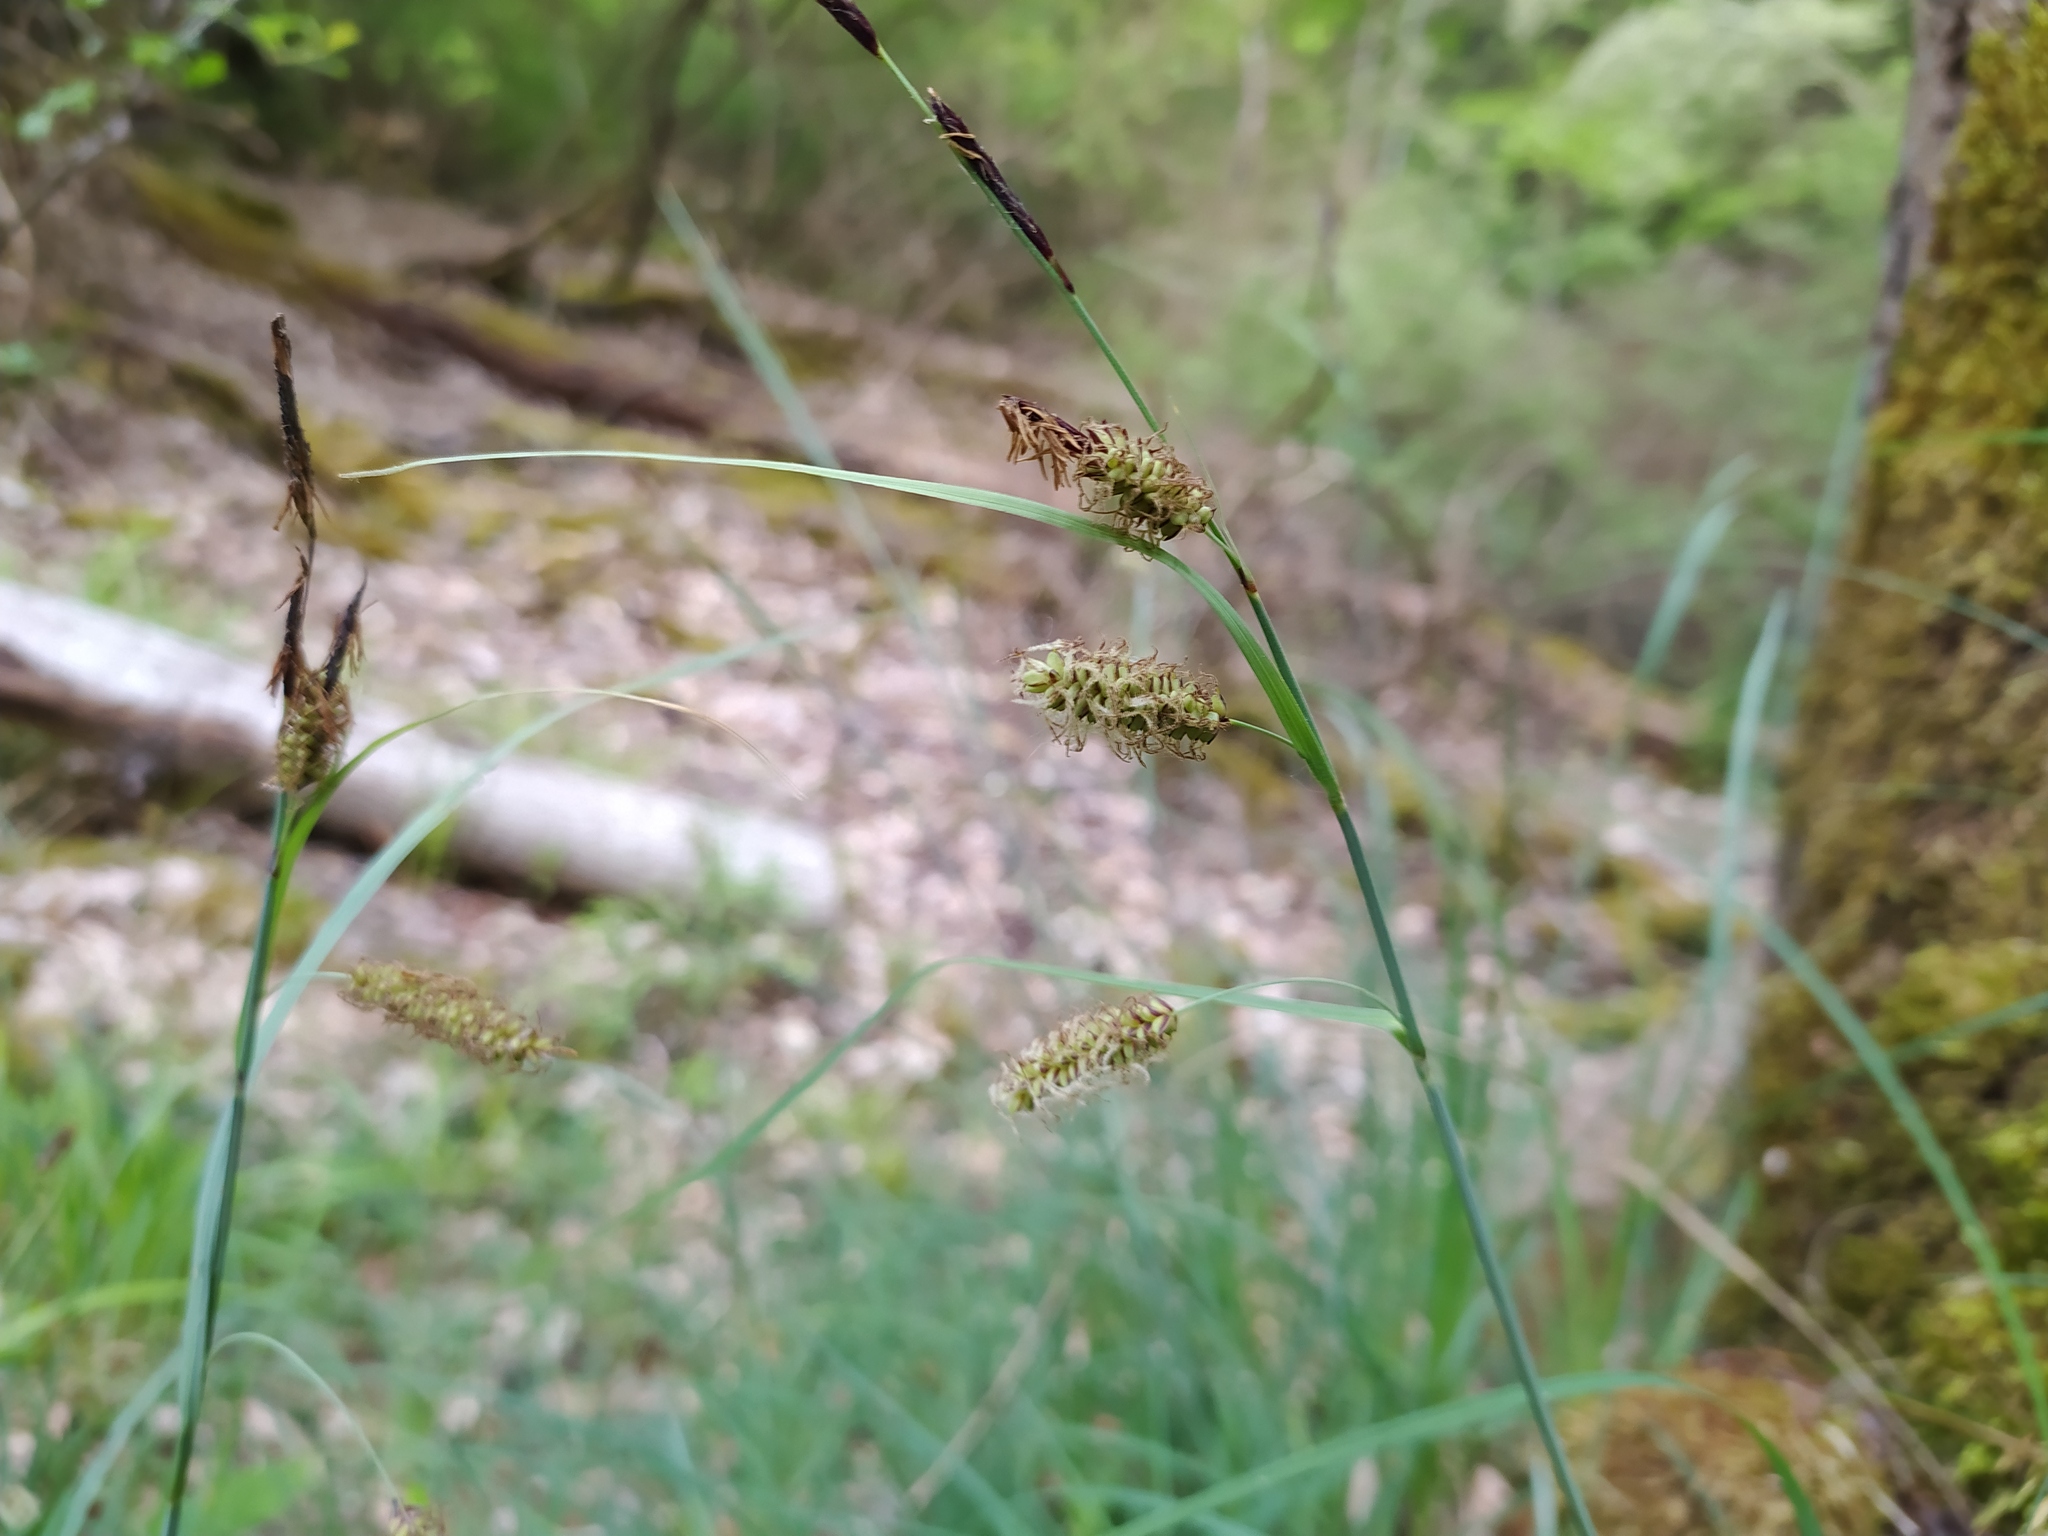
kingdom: Plantae
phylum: Tracheophyta
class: Liliopsida
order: Poales
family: Cyperaceae
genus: Carex
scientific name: Carex flacca
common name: Glaucous sedge
